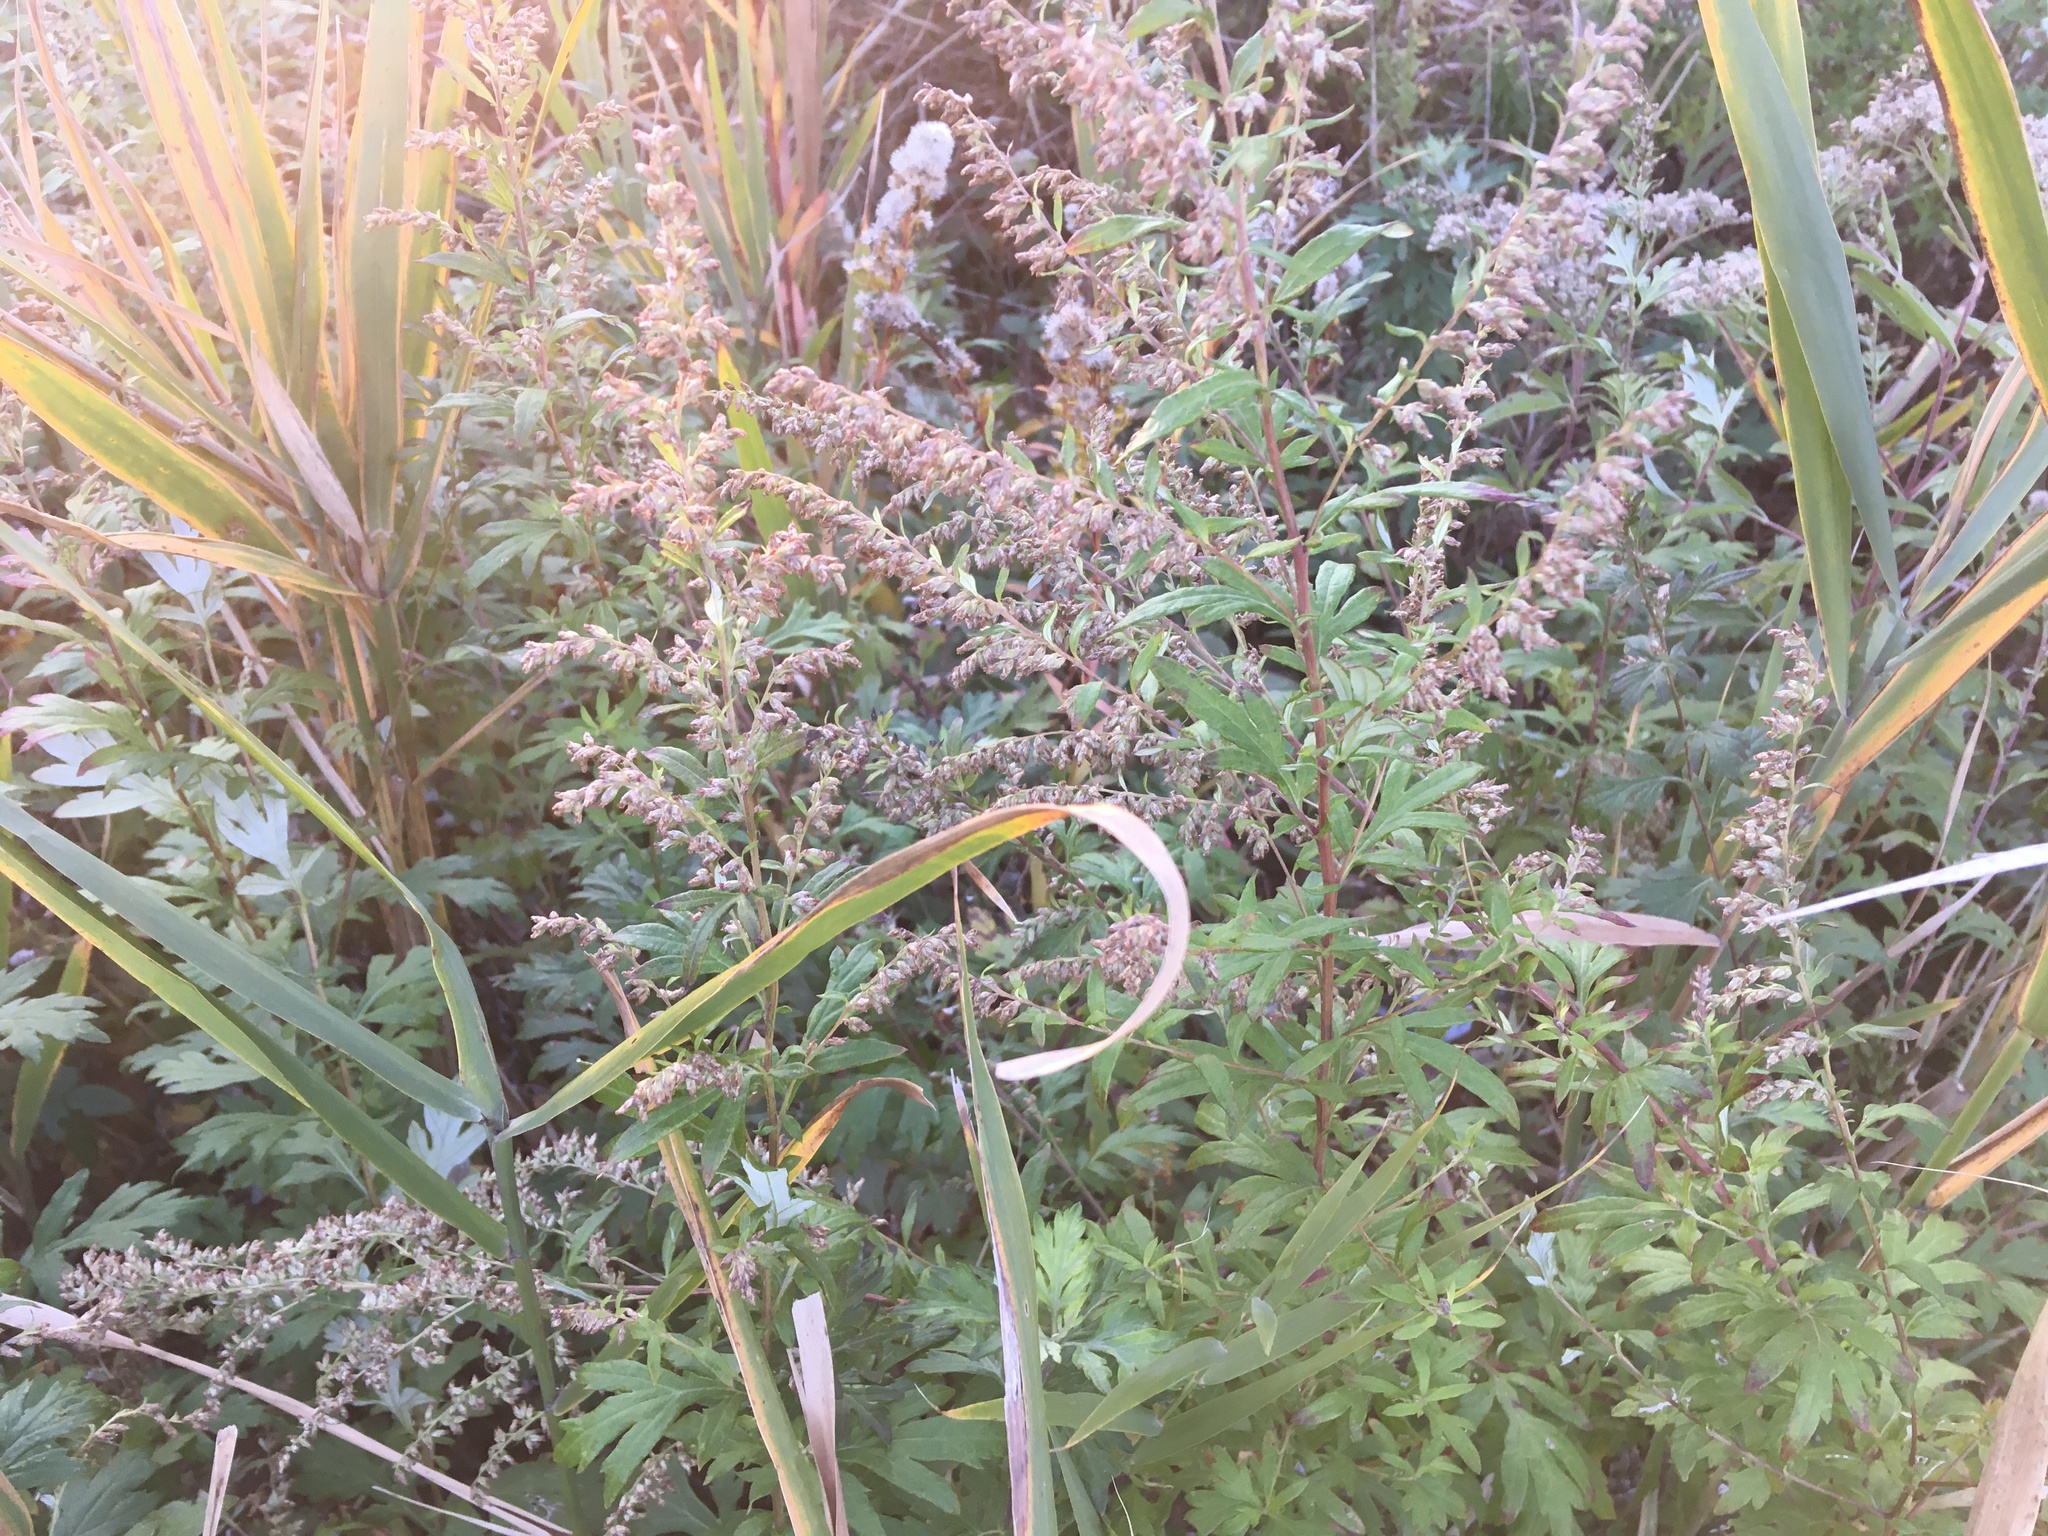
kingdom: Plantae
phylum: Tracheophyta
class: Magnoliopsida
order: Asterales
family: Asteraceae
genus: Artemisia
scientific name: Artemisia vulgaris
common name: Mugwort
